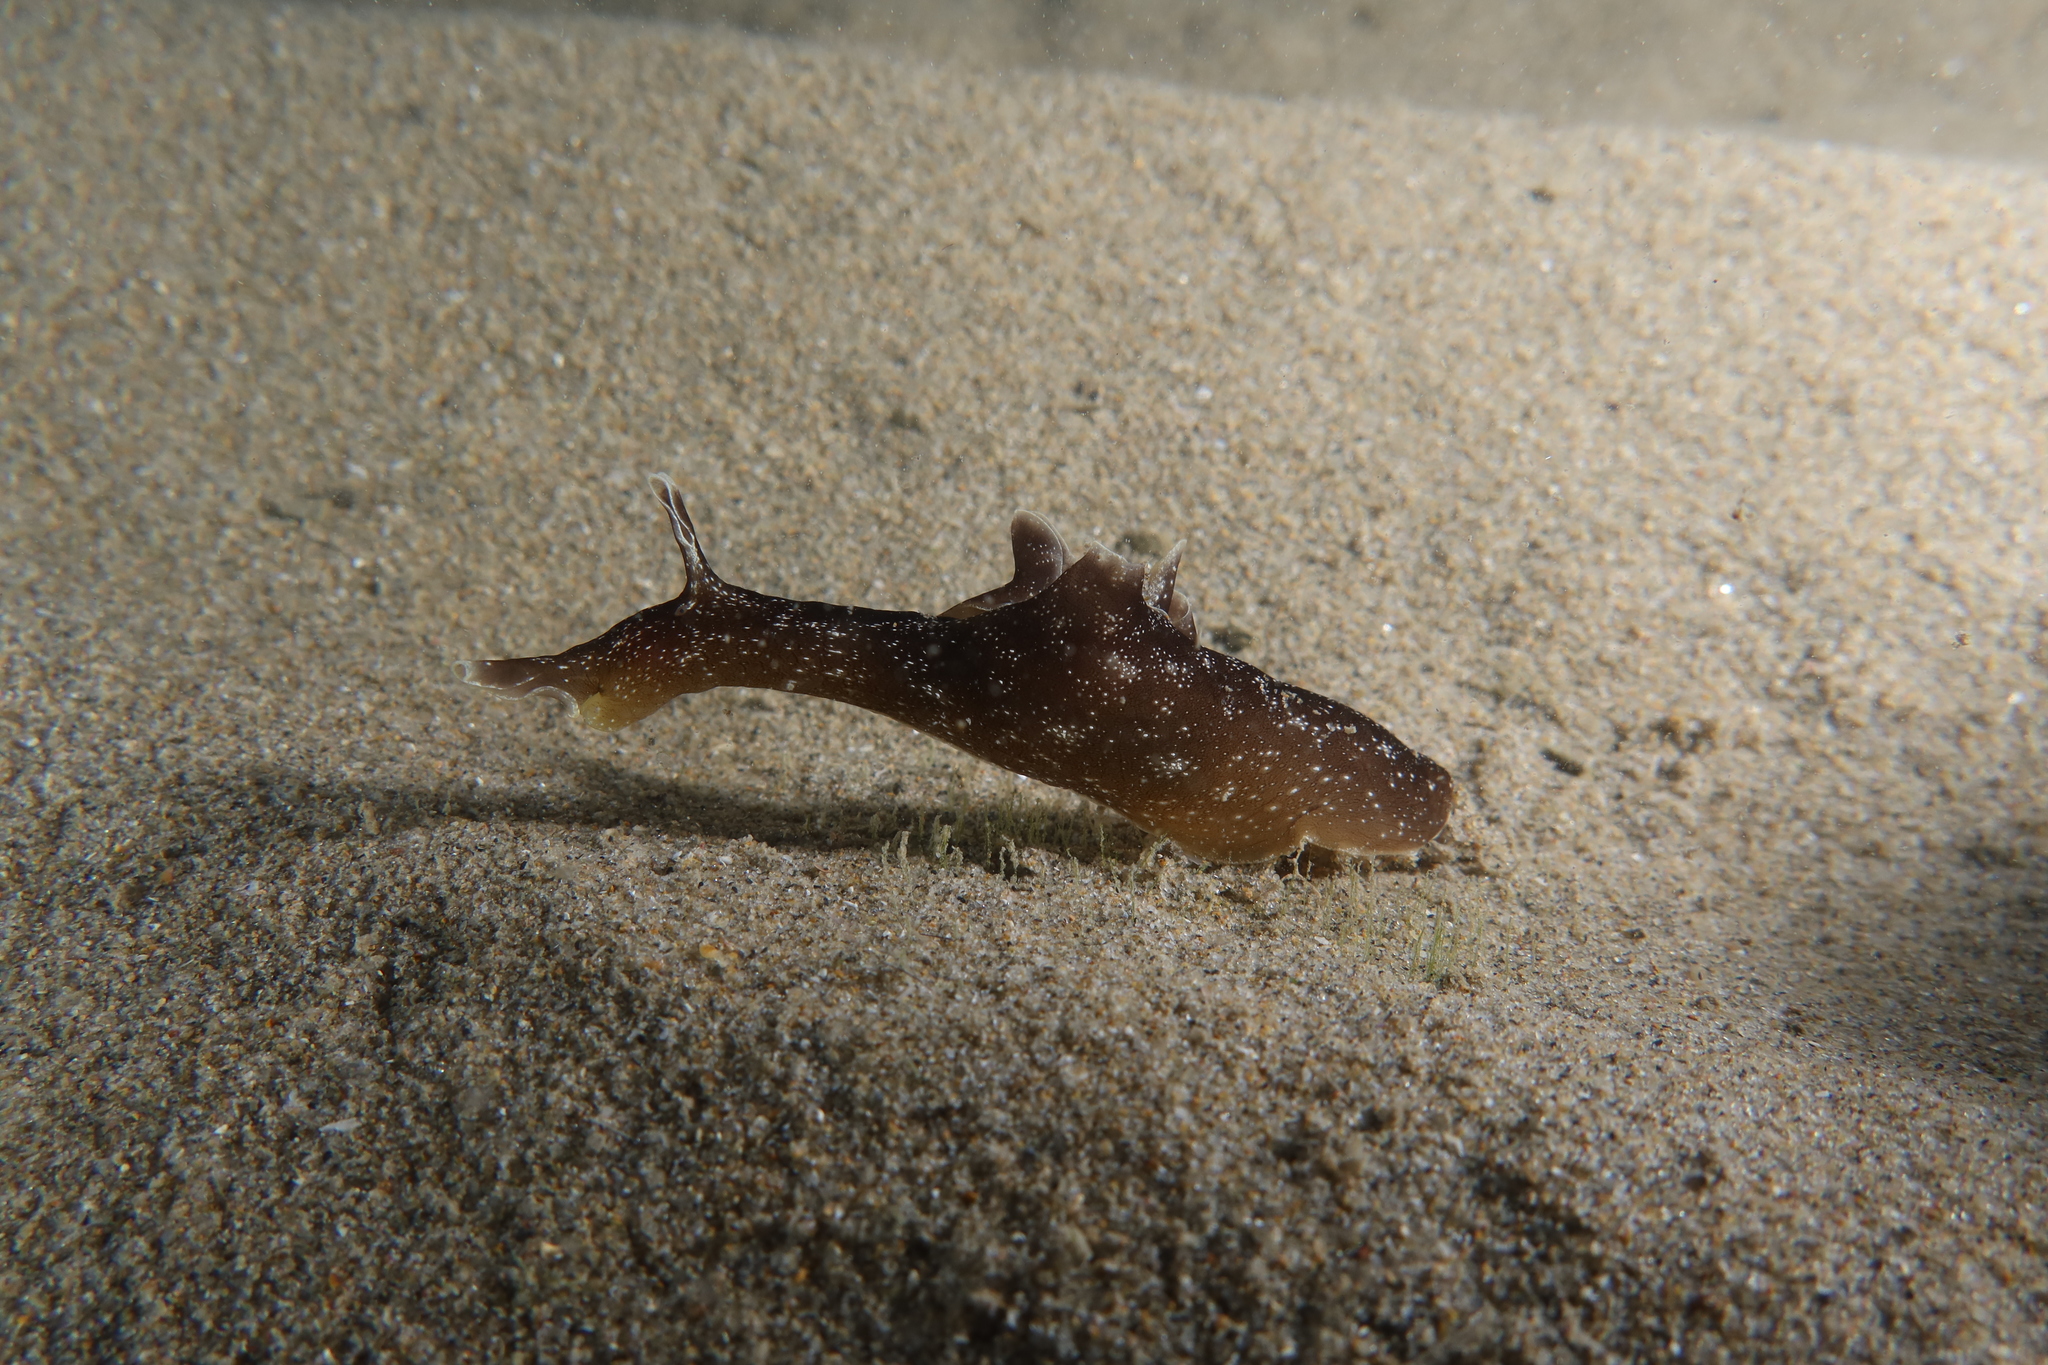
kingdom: Animalia
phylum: Mollusca
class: Gastropoda
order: Aplysiida
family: Aplysiidae
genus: Aplysia
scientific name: Aplysia punctata
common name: Common sea hare
